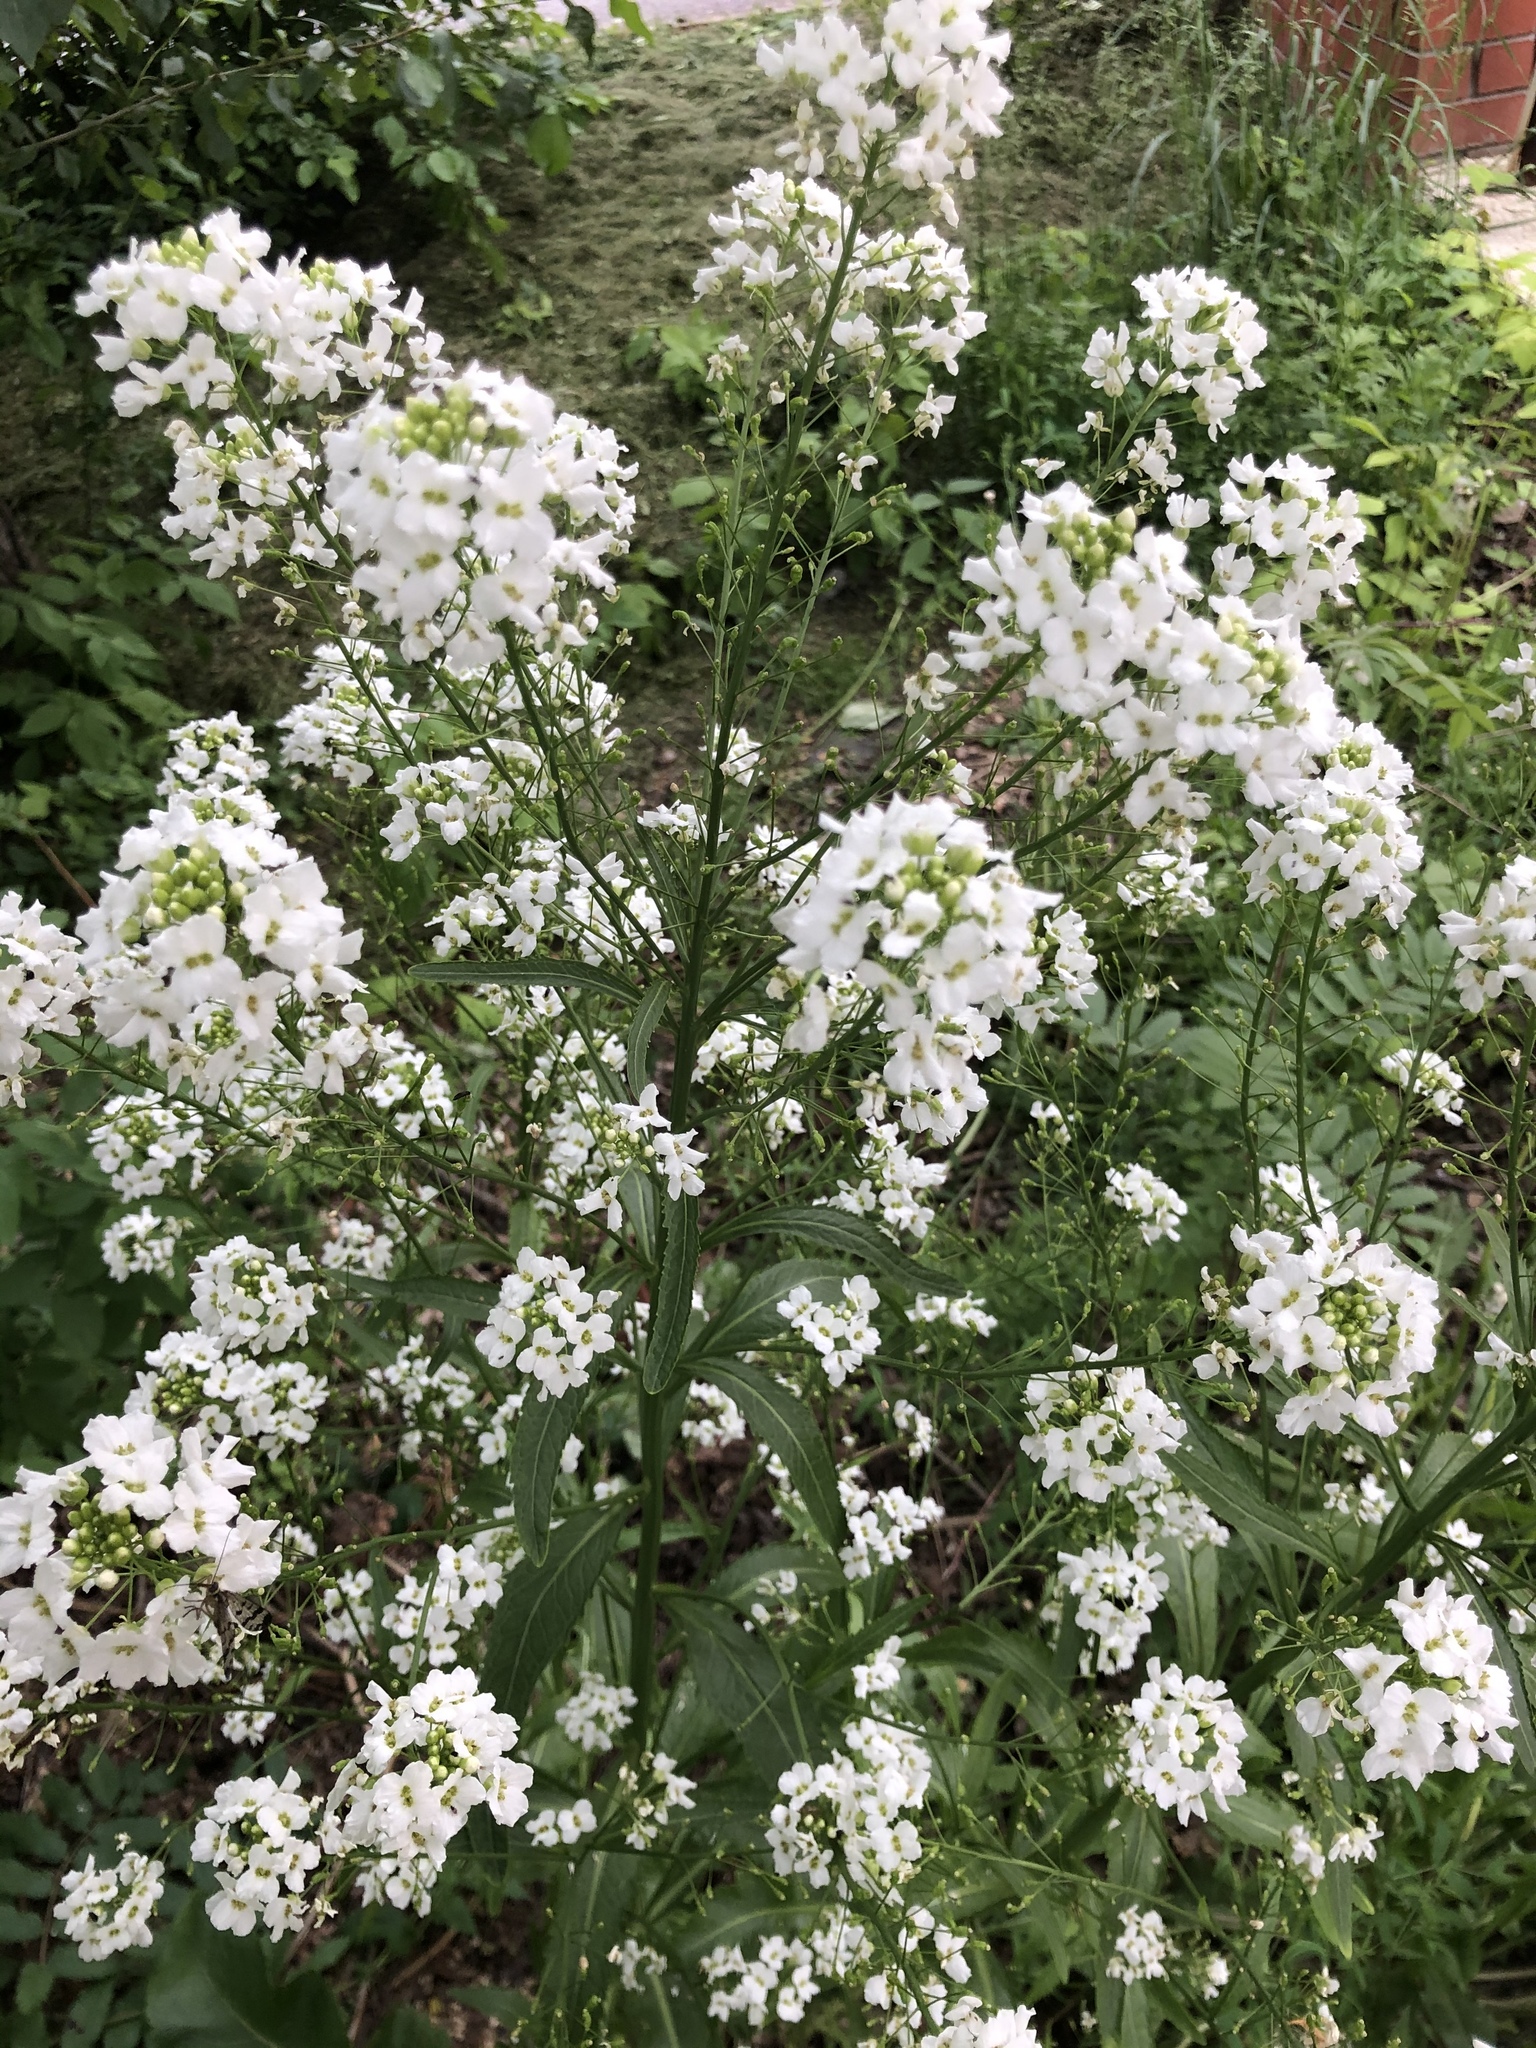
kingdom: Plantae
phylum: Tracheophyta
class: Magnoliopsida
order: Brassicales
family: Brassicaceae
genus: Armoracia
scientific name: Armoracia rusticana
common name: Horseradish
